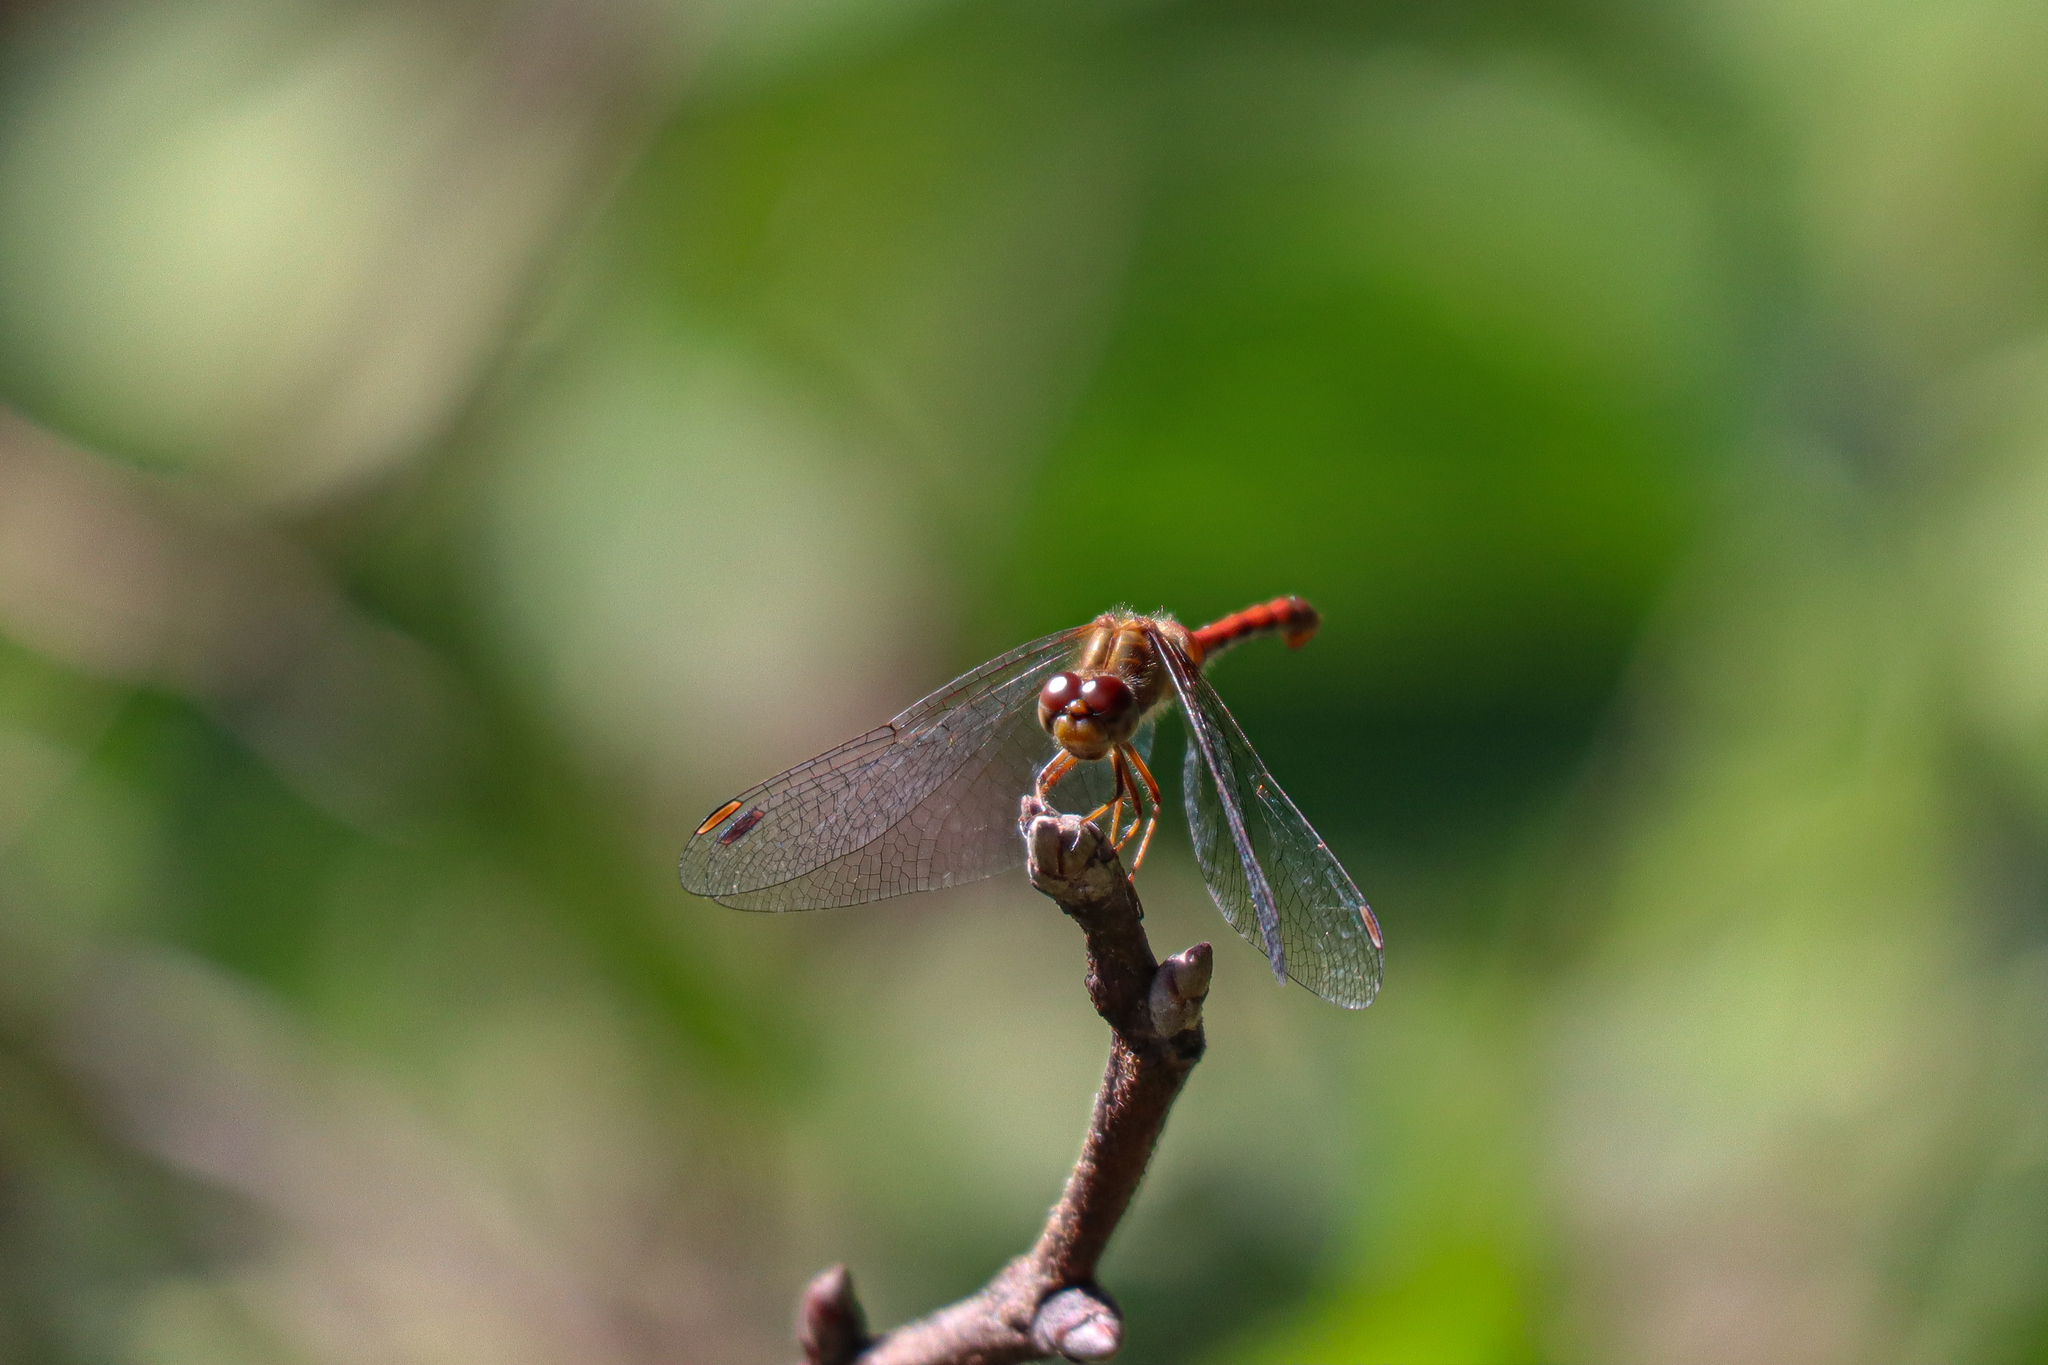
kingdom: Animalia
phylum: Arthropoda
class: Insecta
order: Odonata
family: Libellulidae
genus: Sympetrum
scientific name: Sympetrum vicinum
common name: Autumn meadowhawk
